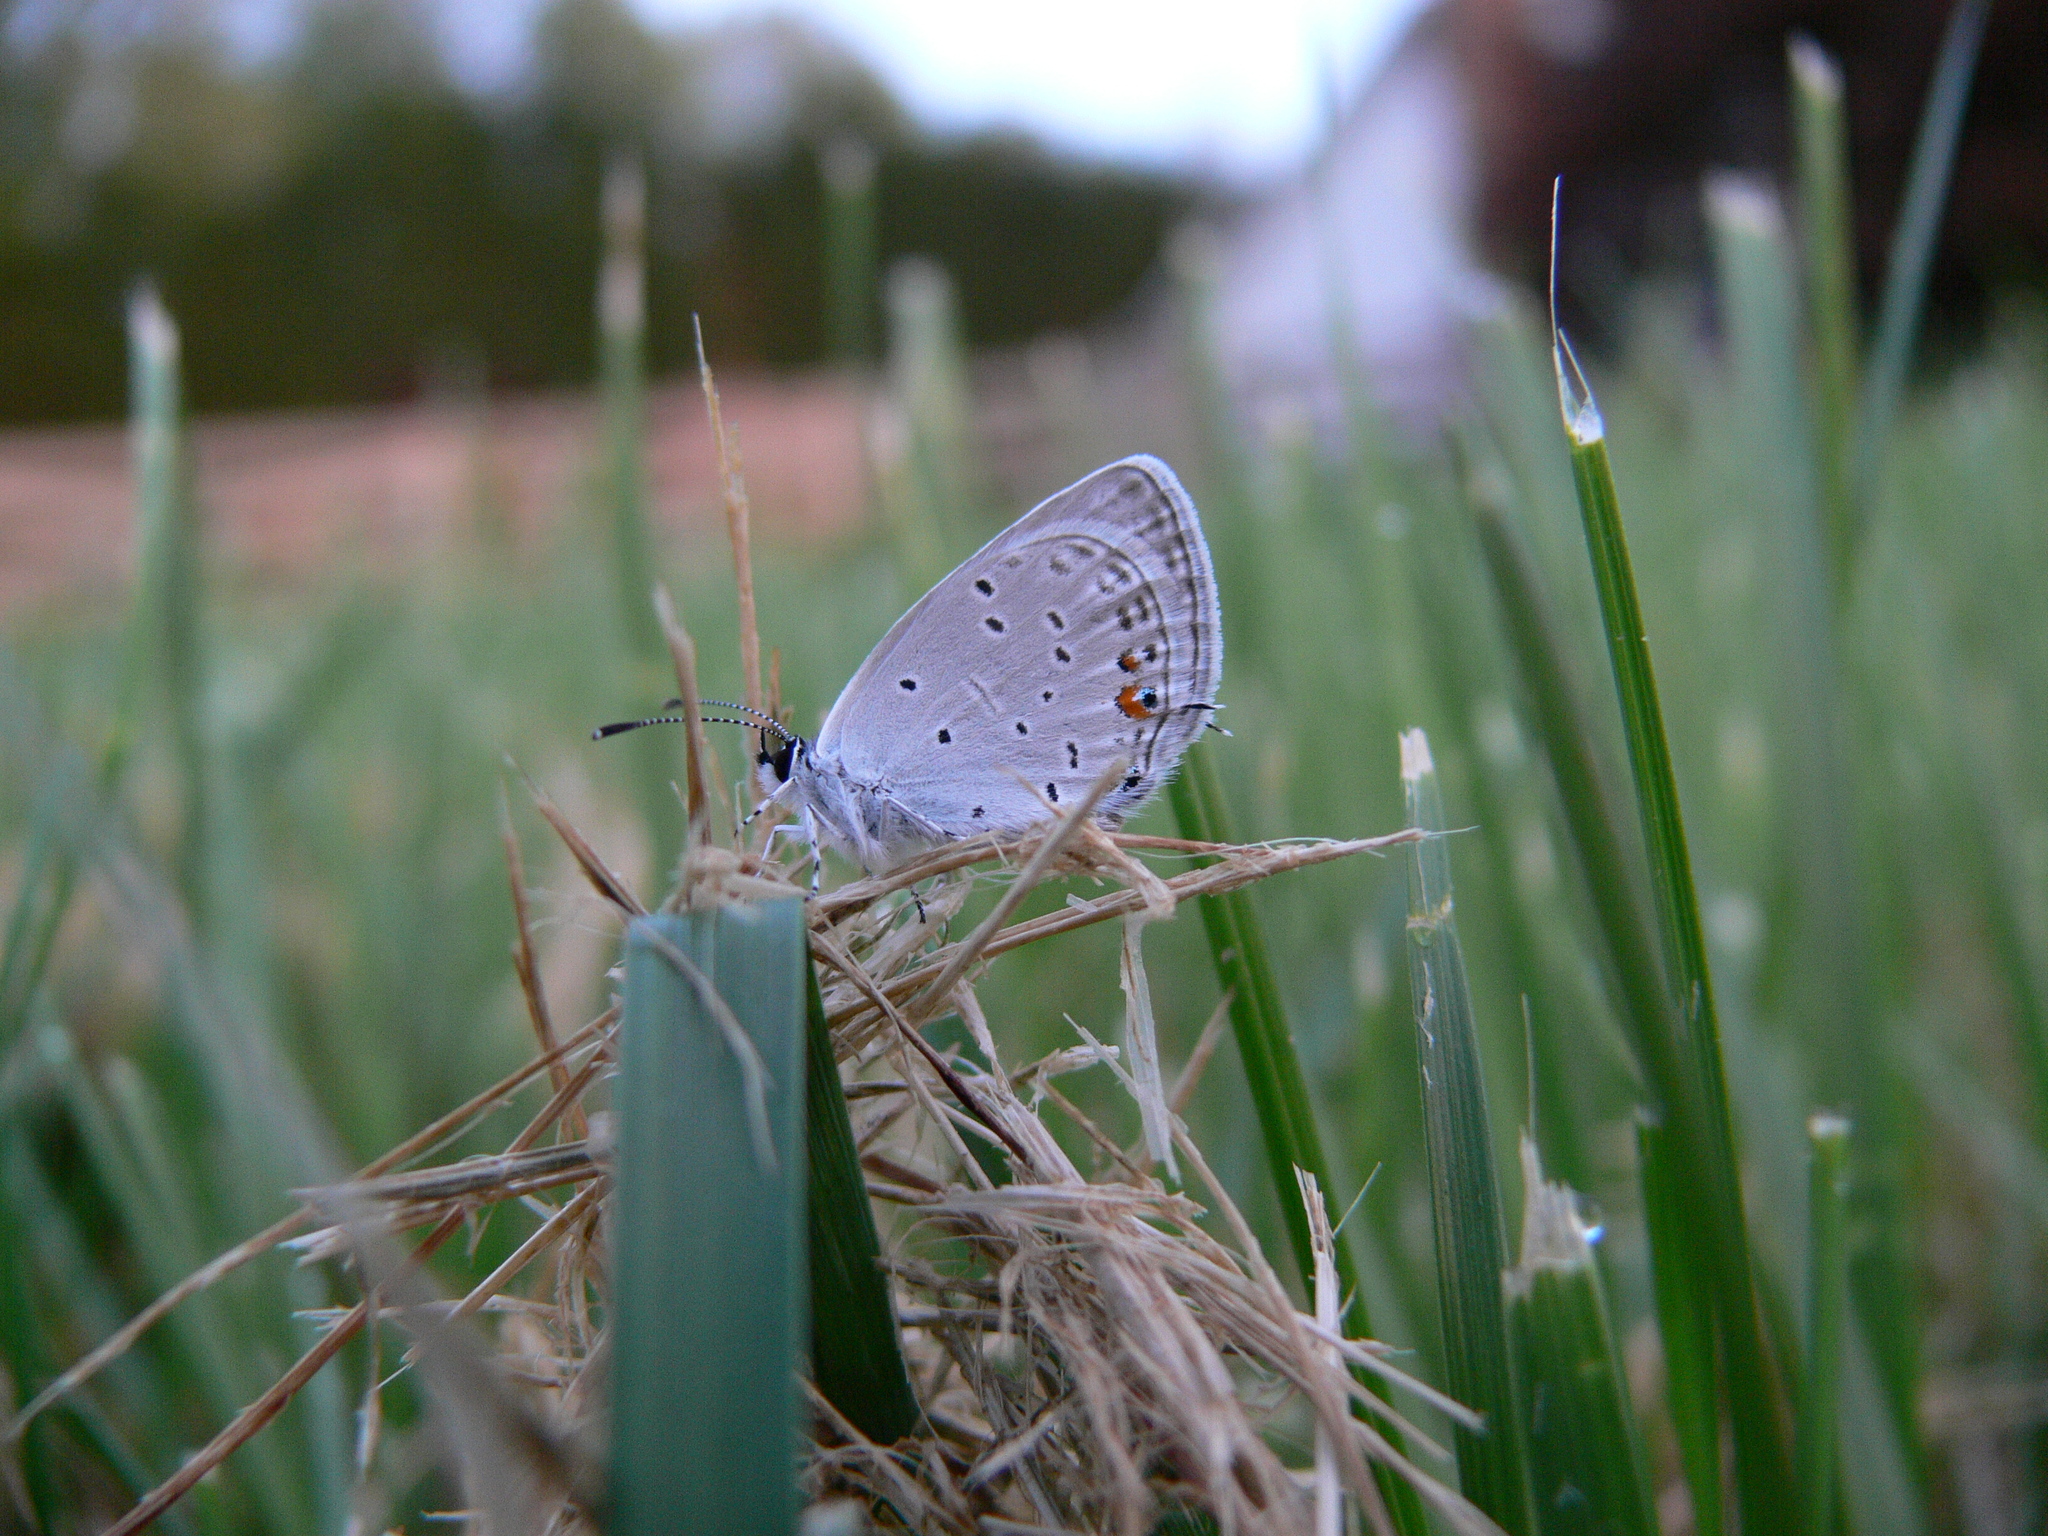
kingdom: Animalia
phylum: Arthropoda
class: Insecta
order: Lepidoptera
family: Lycaenidae
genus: Elkalyce
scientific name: Elkalyce comyntas
